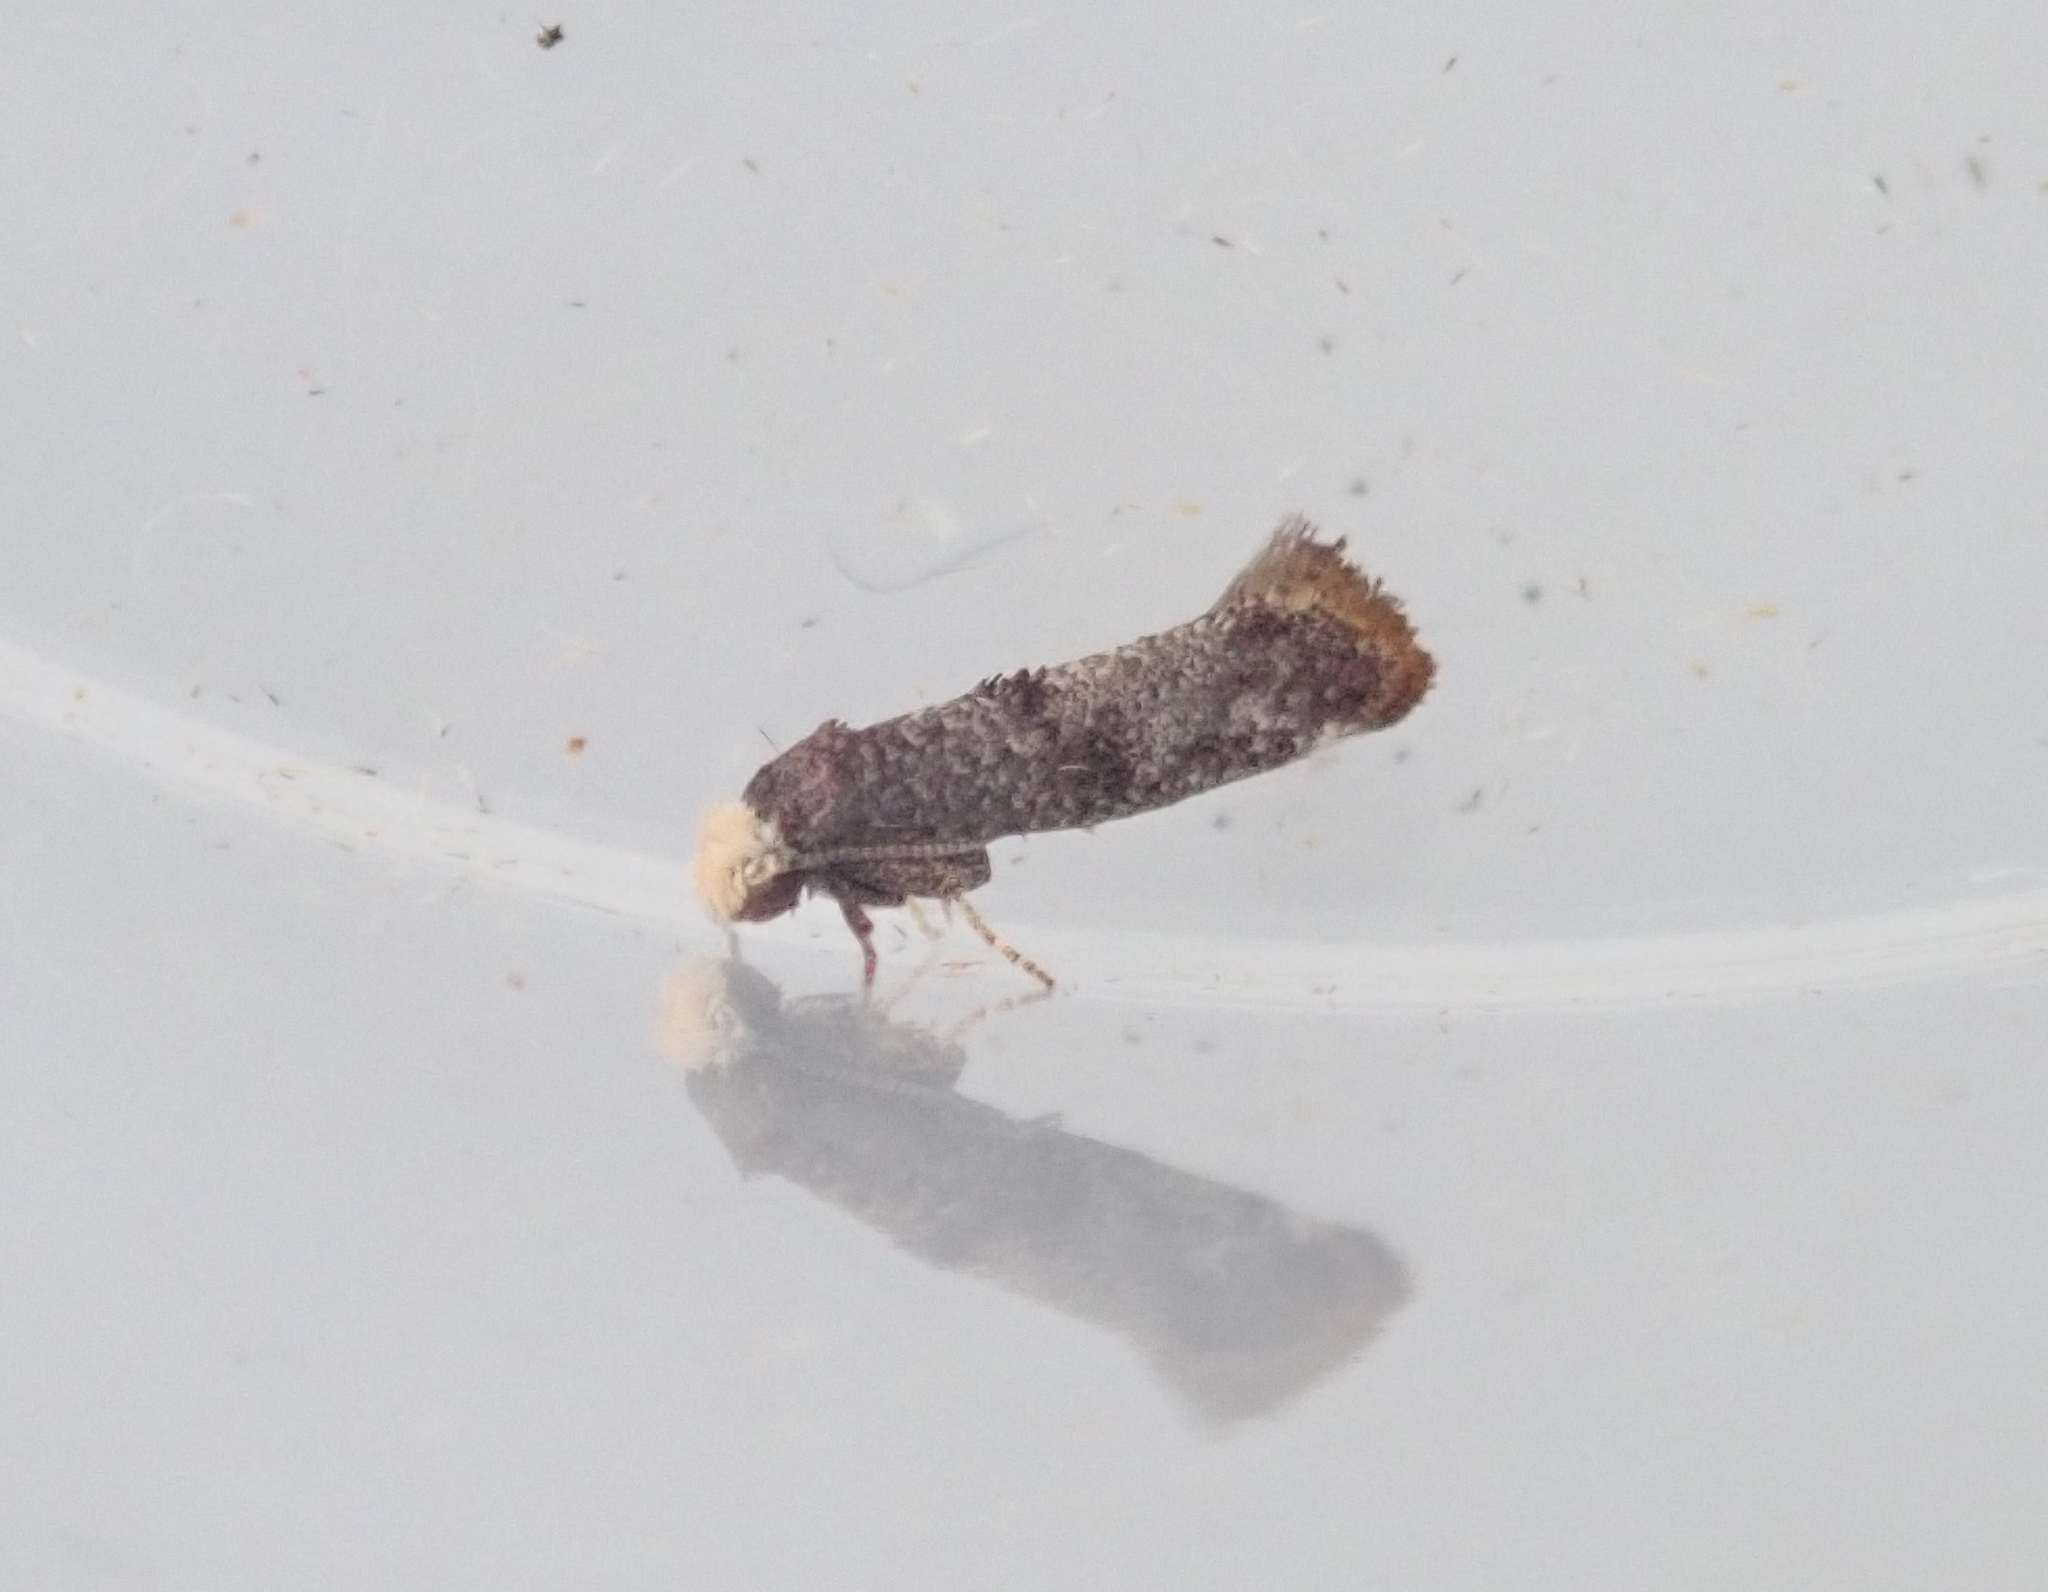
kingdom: Animalia
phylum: Arthropoda
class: Insecta
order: Lepidoptera
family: Yponomeutidae
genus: Swammerdamia
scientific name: Swammerdamia pyrella
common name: Little ermine moth
